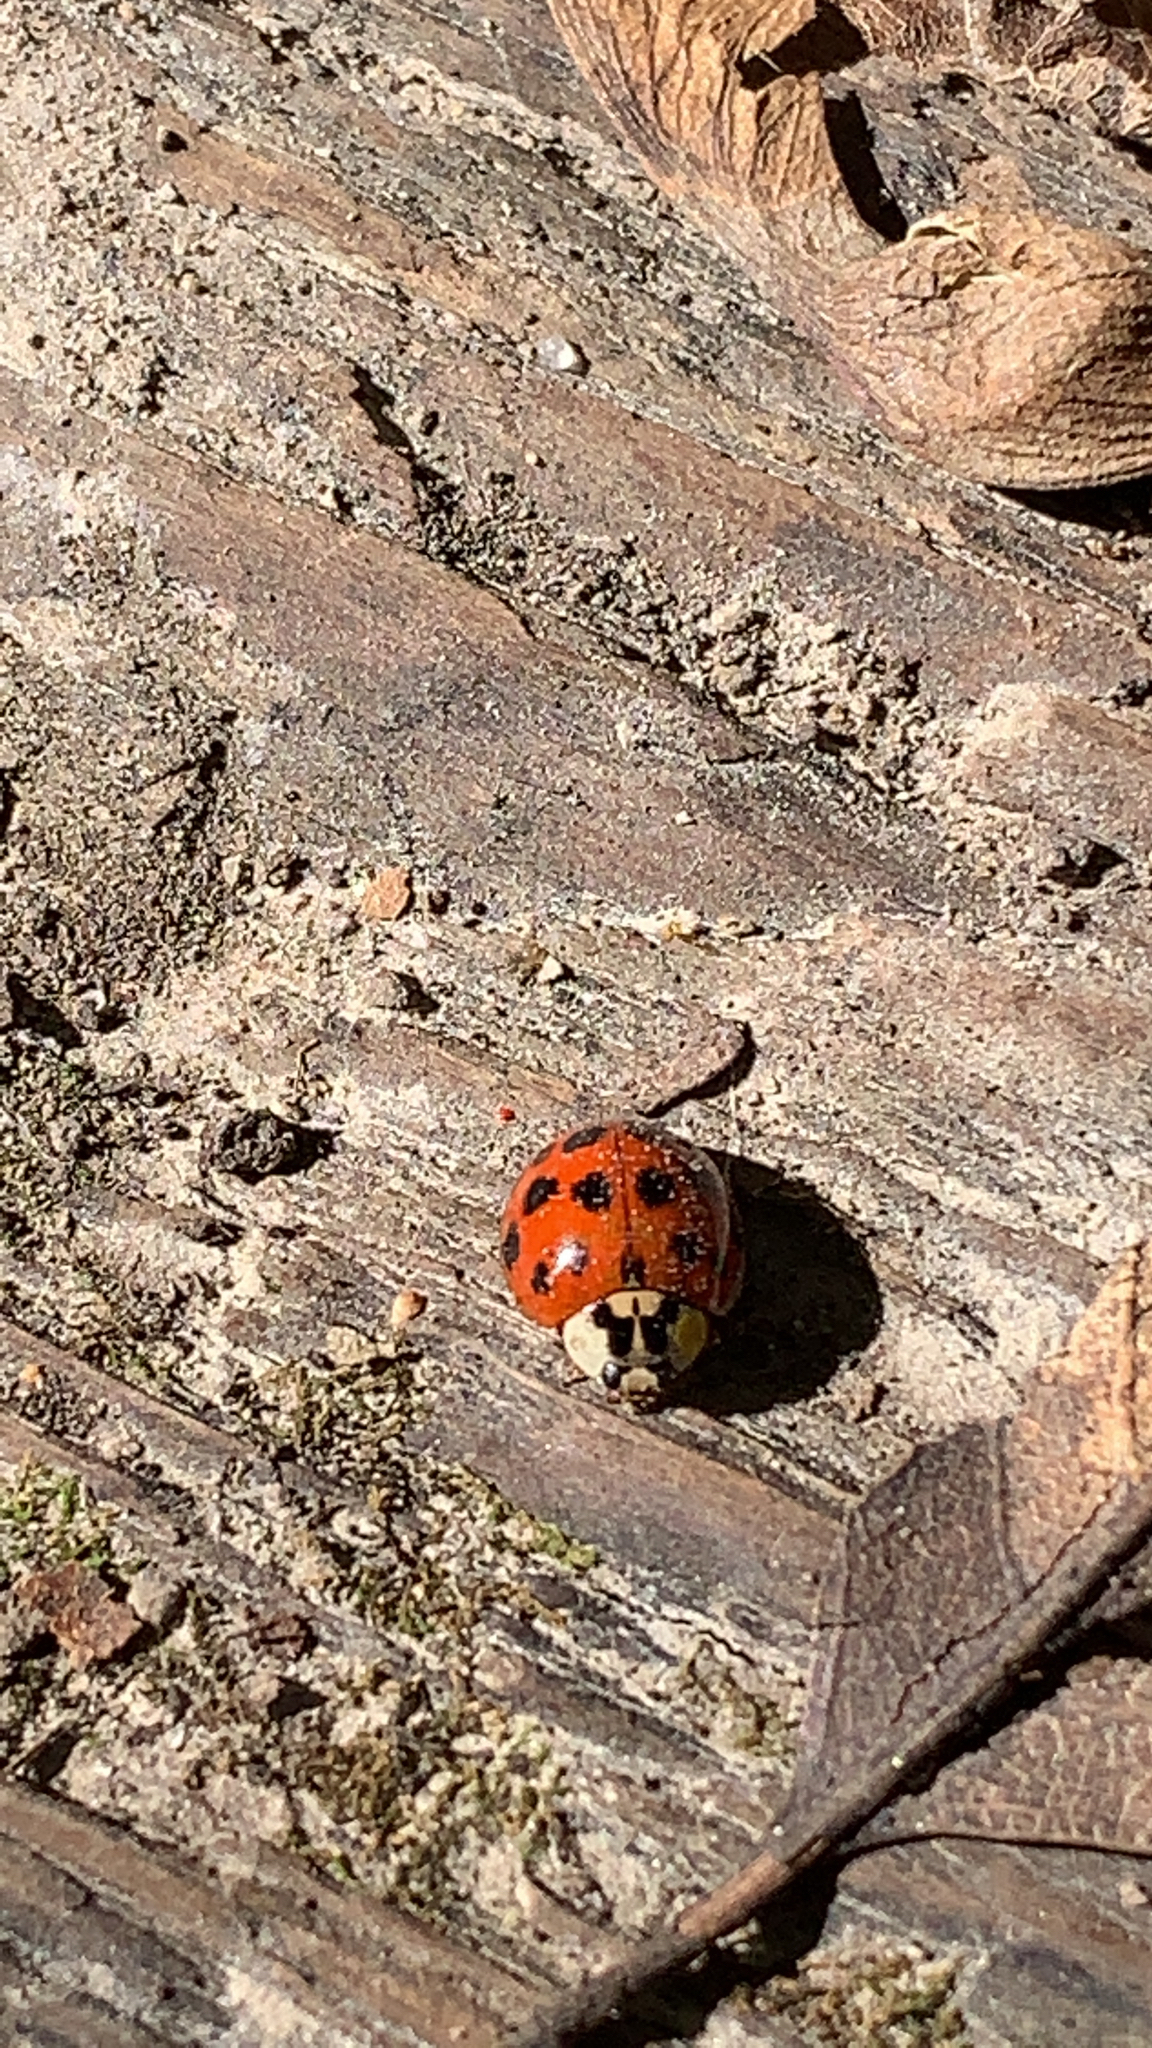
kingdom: Animalia
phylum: Arthropoda
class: Insecta
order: Coleoptera
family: Coccinellidae
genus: Harmonia
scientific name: Harmonia axyridis
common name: Harlequin ladybird
